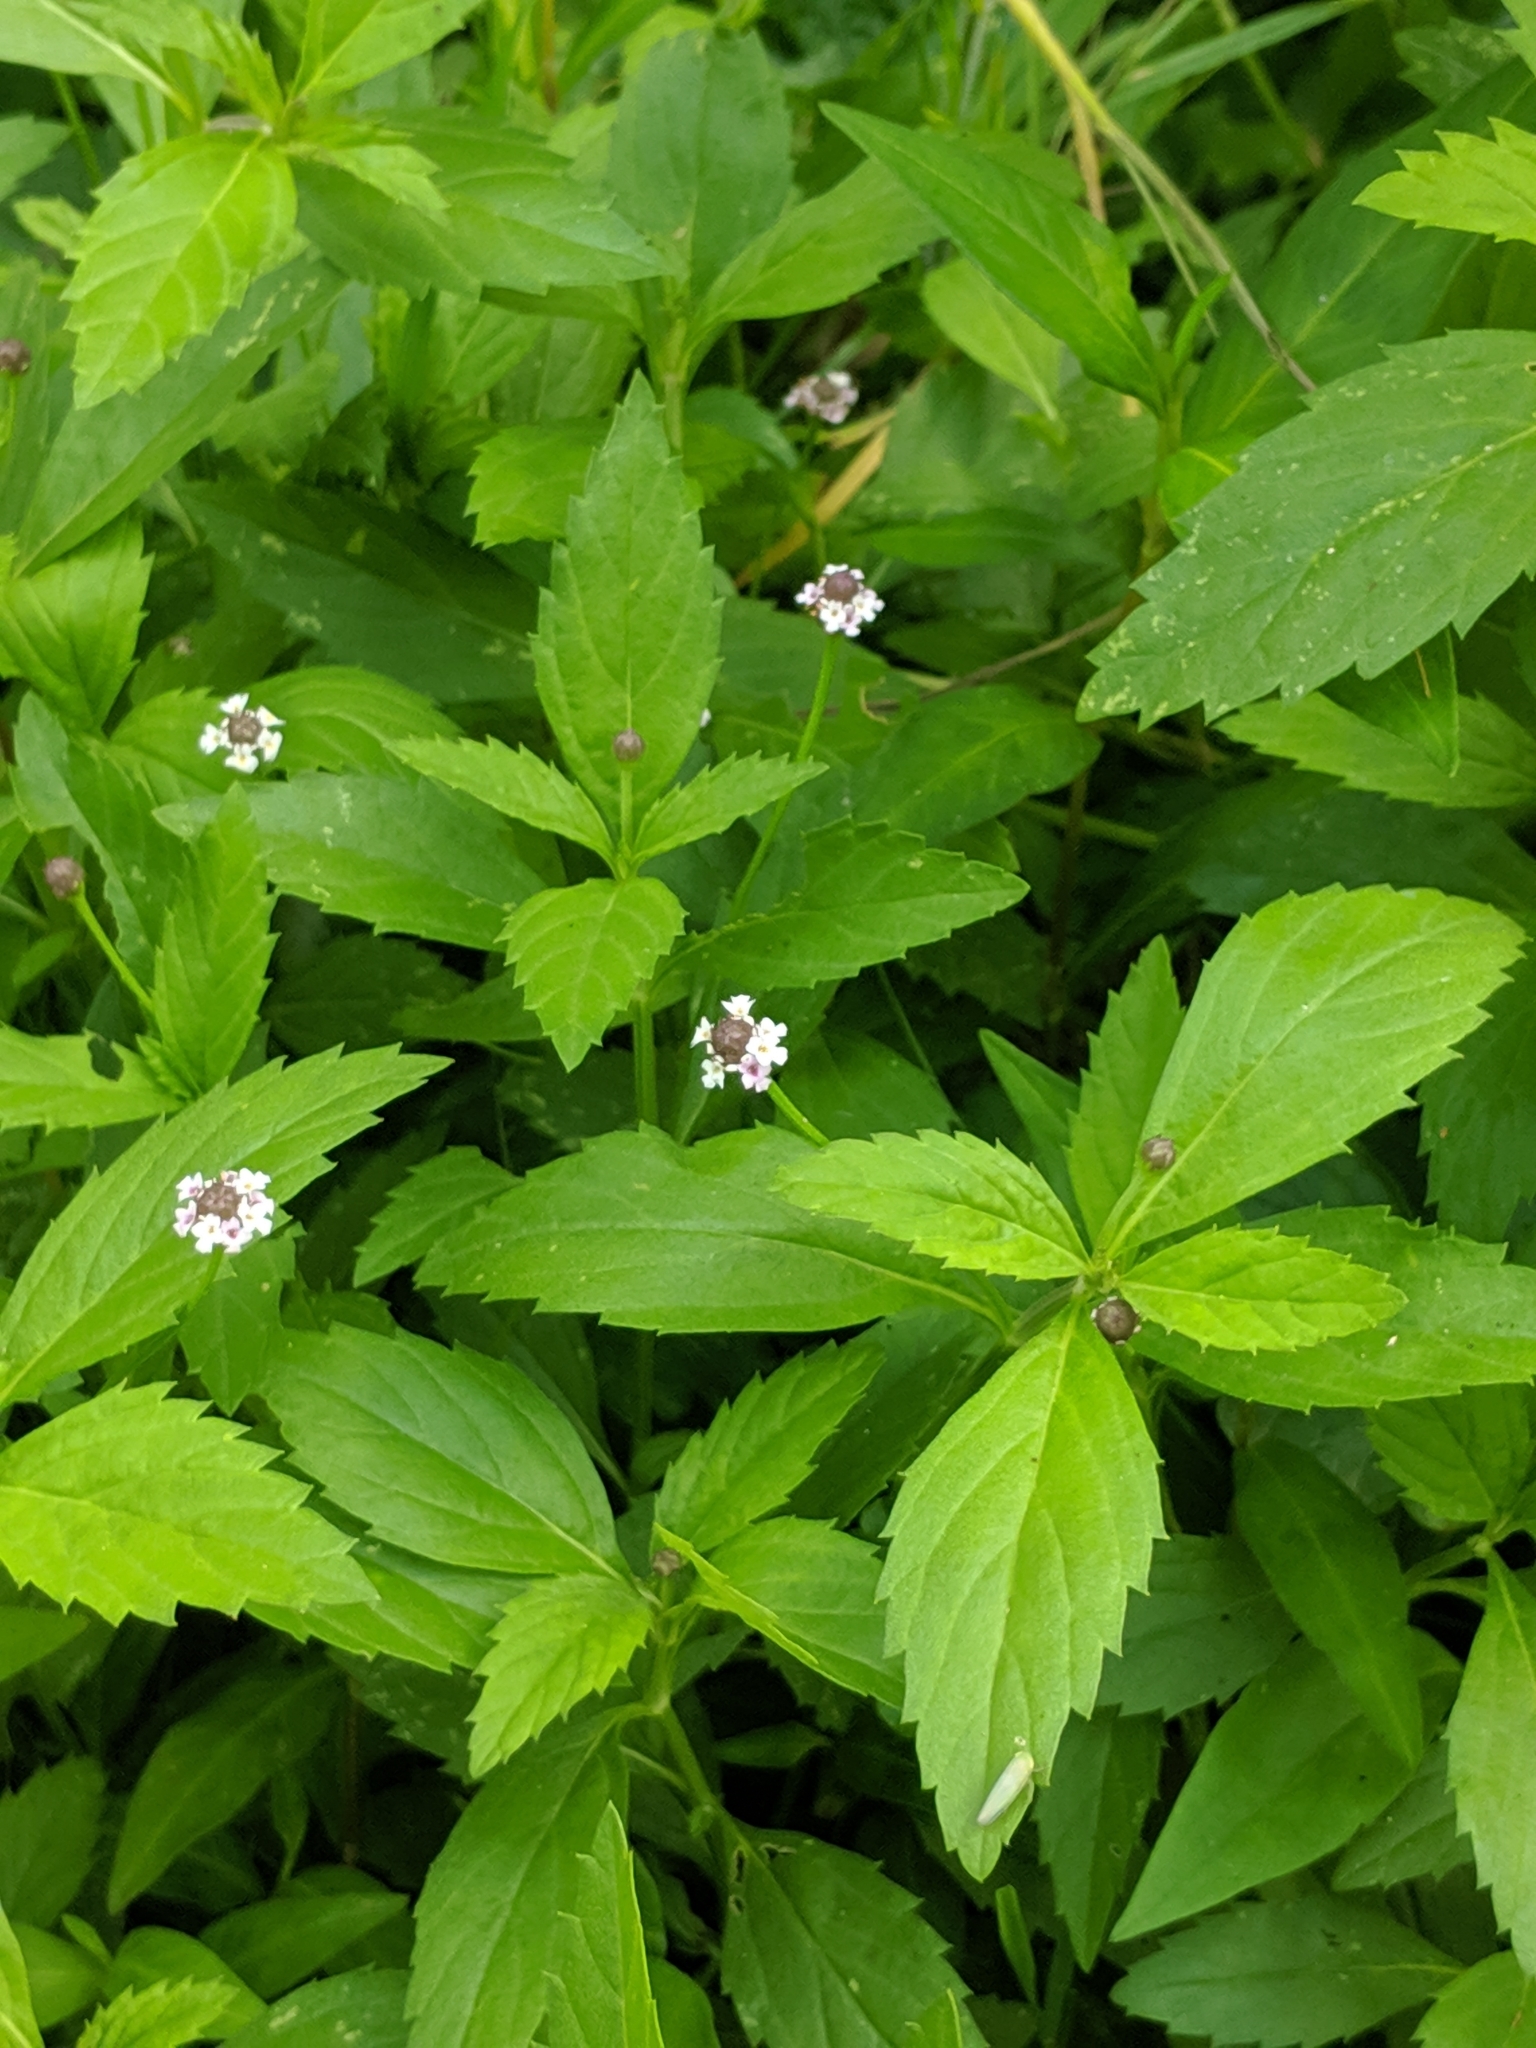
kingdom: Plantae
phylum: Tracheophyta
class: Magnoliopsida
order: Lamiales
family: Verbenaceae
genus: Phyla
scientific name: Phyla lanceolata
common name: Northern fogfruit
